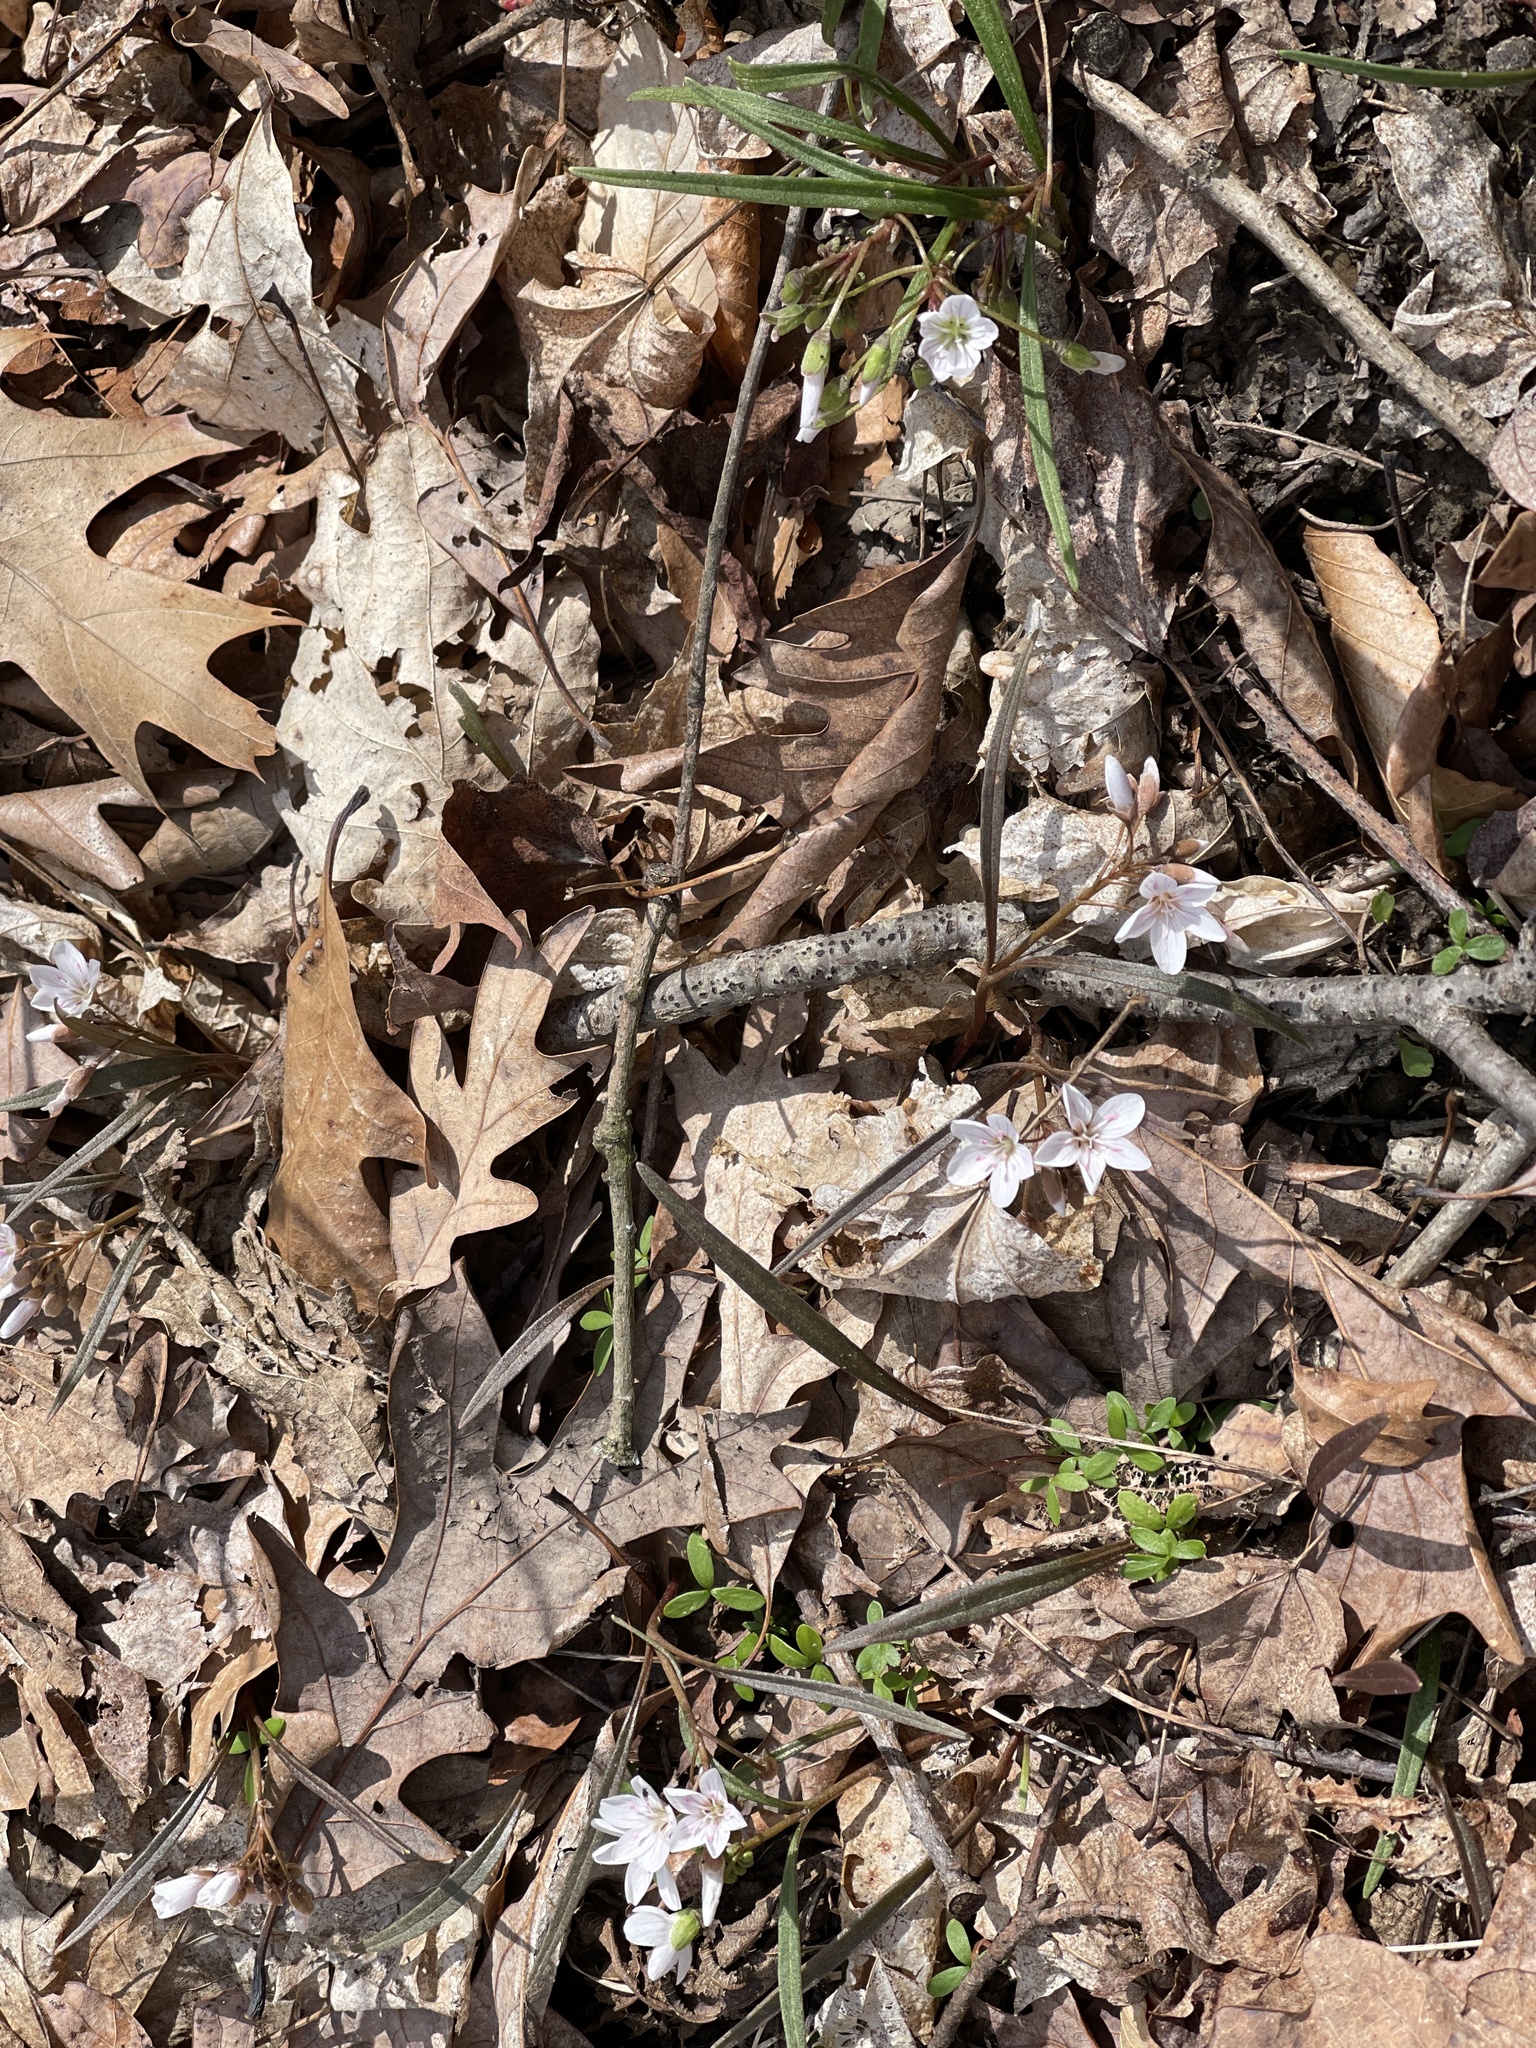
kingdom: Plantae
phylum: Tracheophyta
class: Magnoliopsida
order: Caryophyllales
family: Montiaceae
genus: Claytonia
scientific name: Claytonia virginica
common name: Virginia springbeauty
